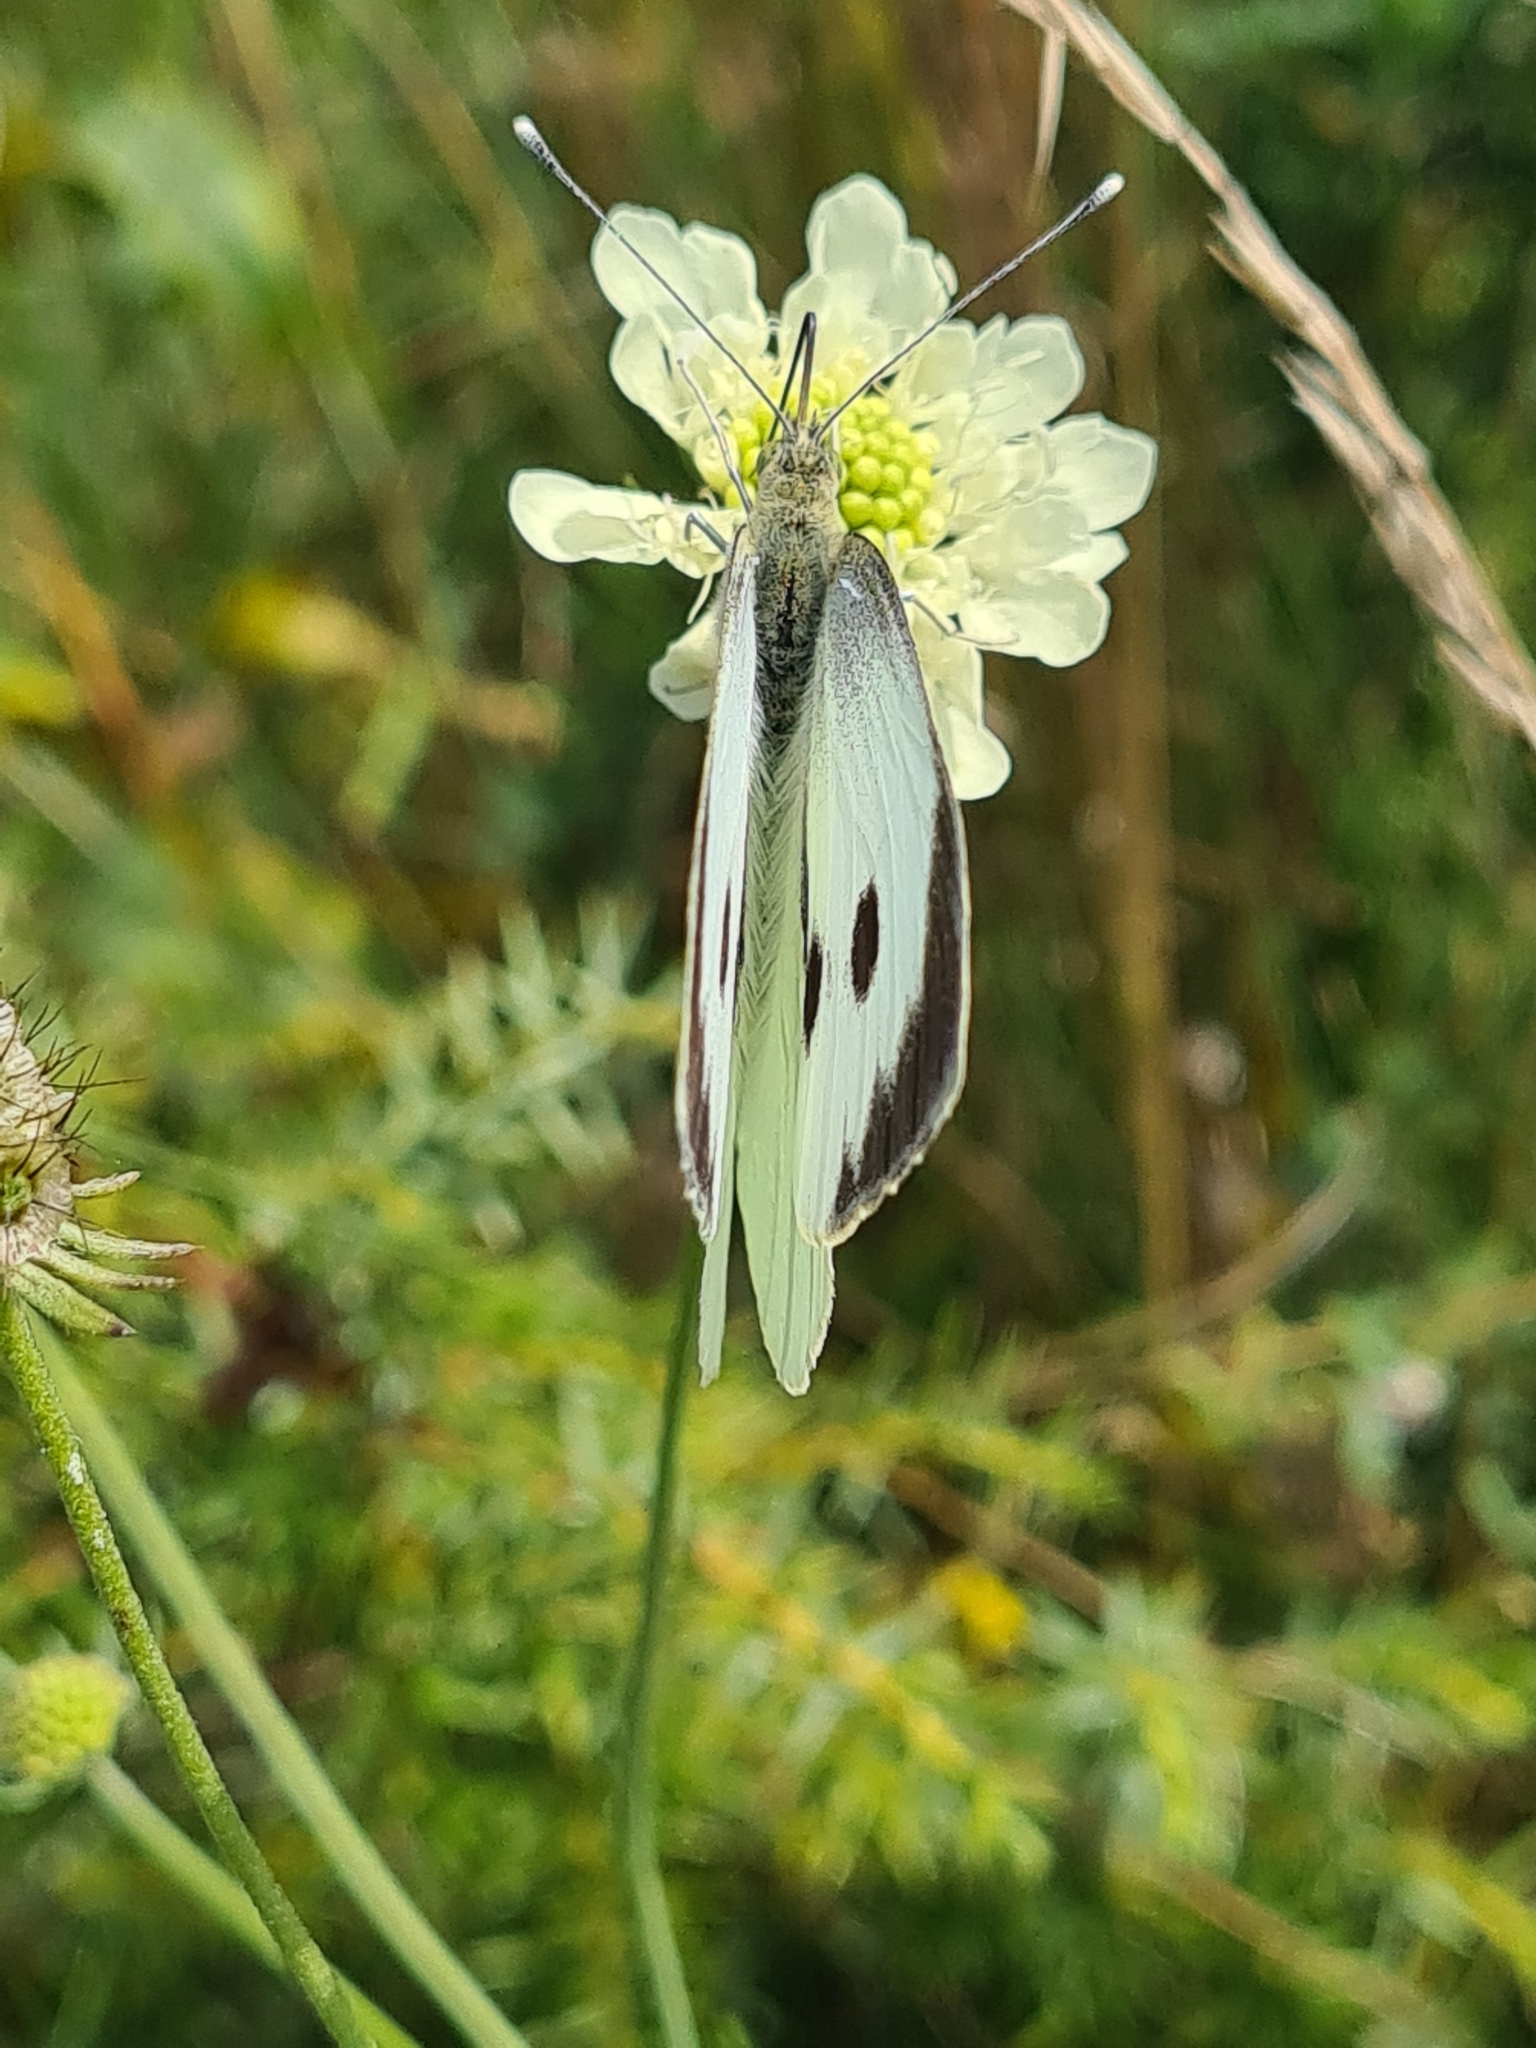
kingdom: Animalia
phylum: Arthropoda
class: Insecta
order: Lepidoptera
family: Pieridae
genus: Pieris
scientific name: Pieris brassicae
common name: Large white
